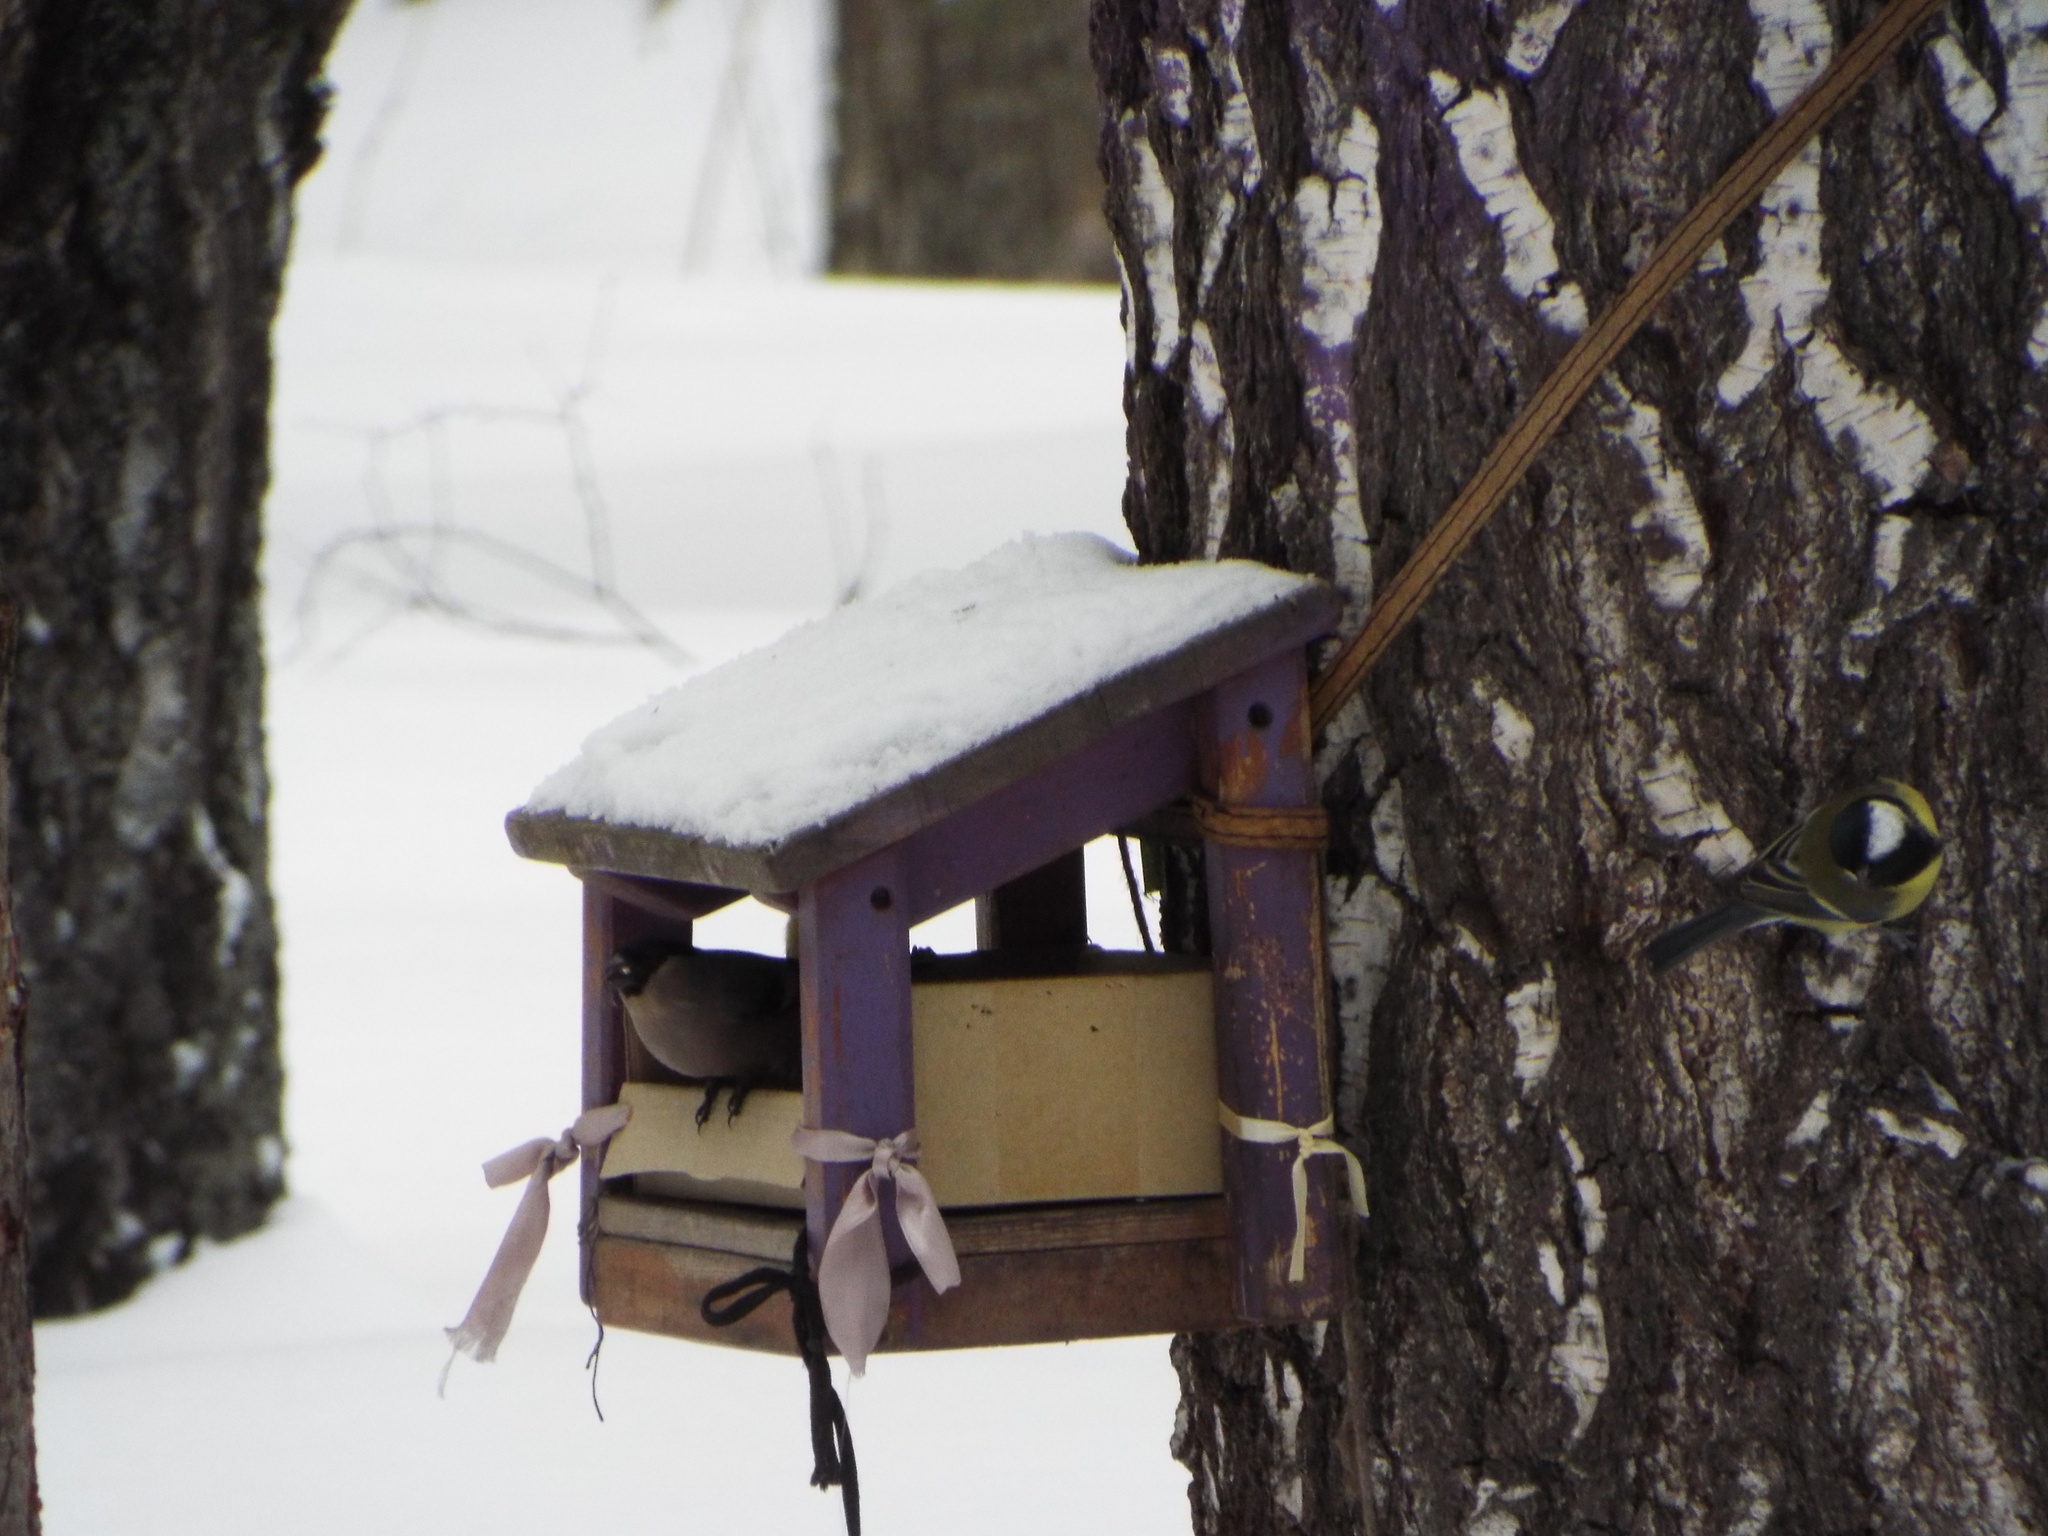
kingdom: Animalia
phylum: Chordata
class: Aves
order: Passeriformes
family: Fringillidae
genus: Pyrrhula
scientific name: Pyrrhula pyrrhula
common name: Eurasian bullfinch
